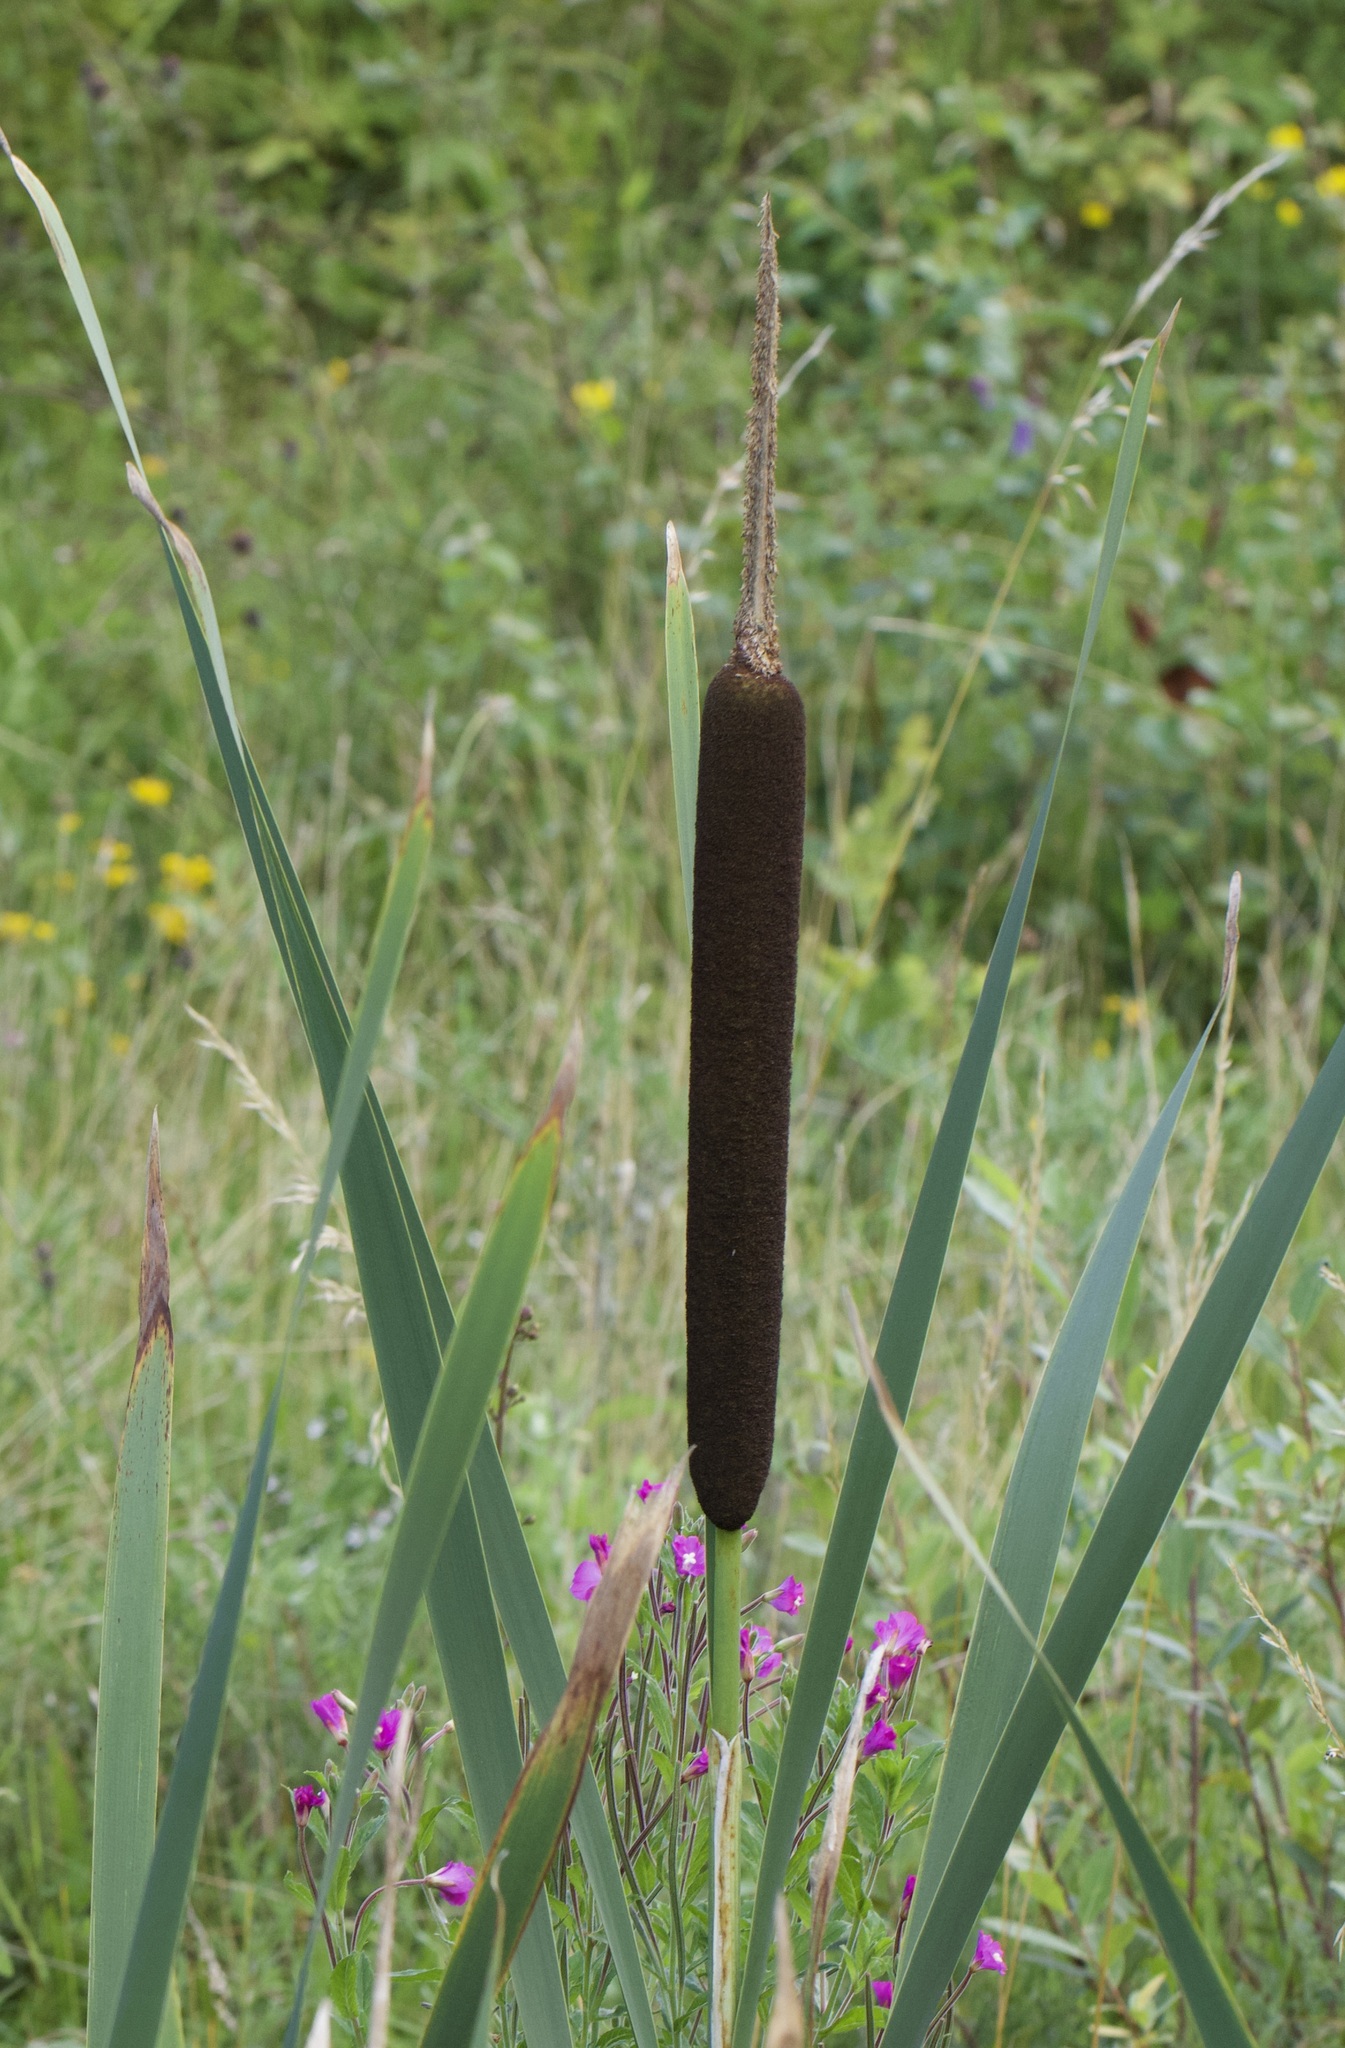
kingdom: Plantae
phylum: Tracheophyta
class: Liliopsida
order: Poales
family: Typhaceae
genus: Typha
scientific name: Typha latifolia
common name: Broadleaf cattail
